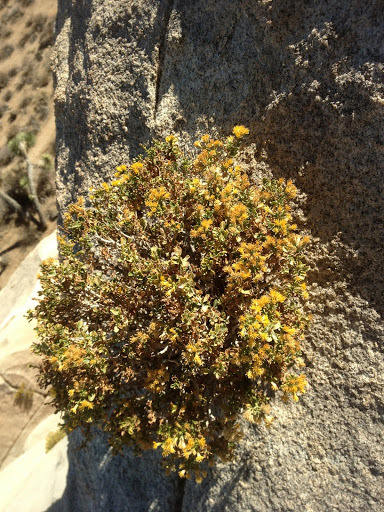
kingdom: Plantae
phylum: Tracheophyta
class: Magnoliopsida
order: Asterales
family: Asteraceae
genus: Ericameria
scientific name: Ericameria cuneata
